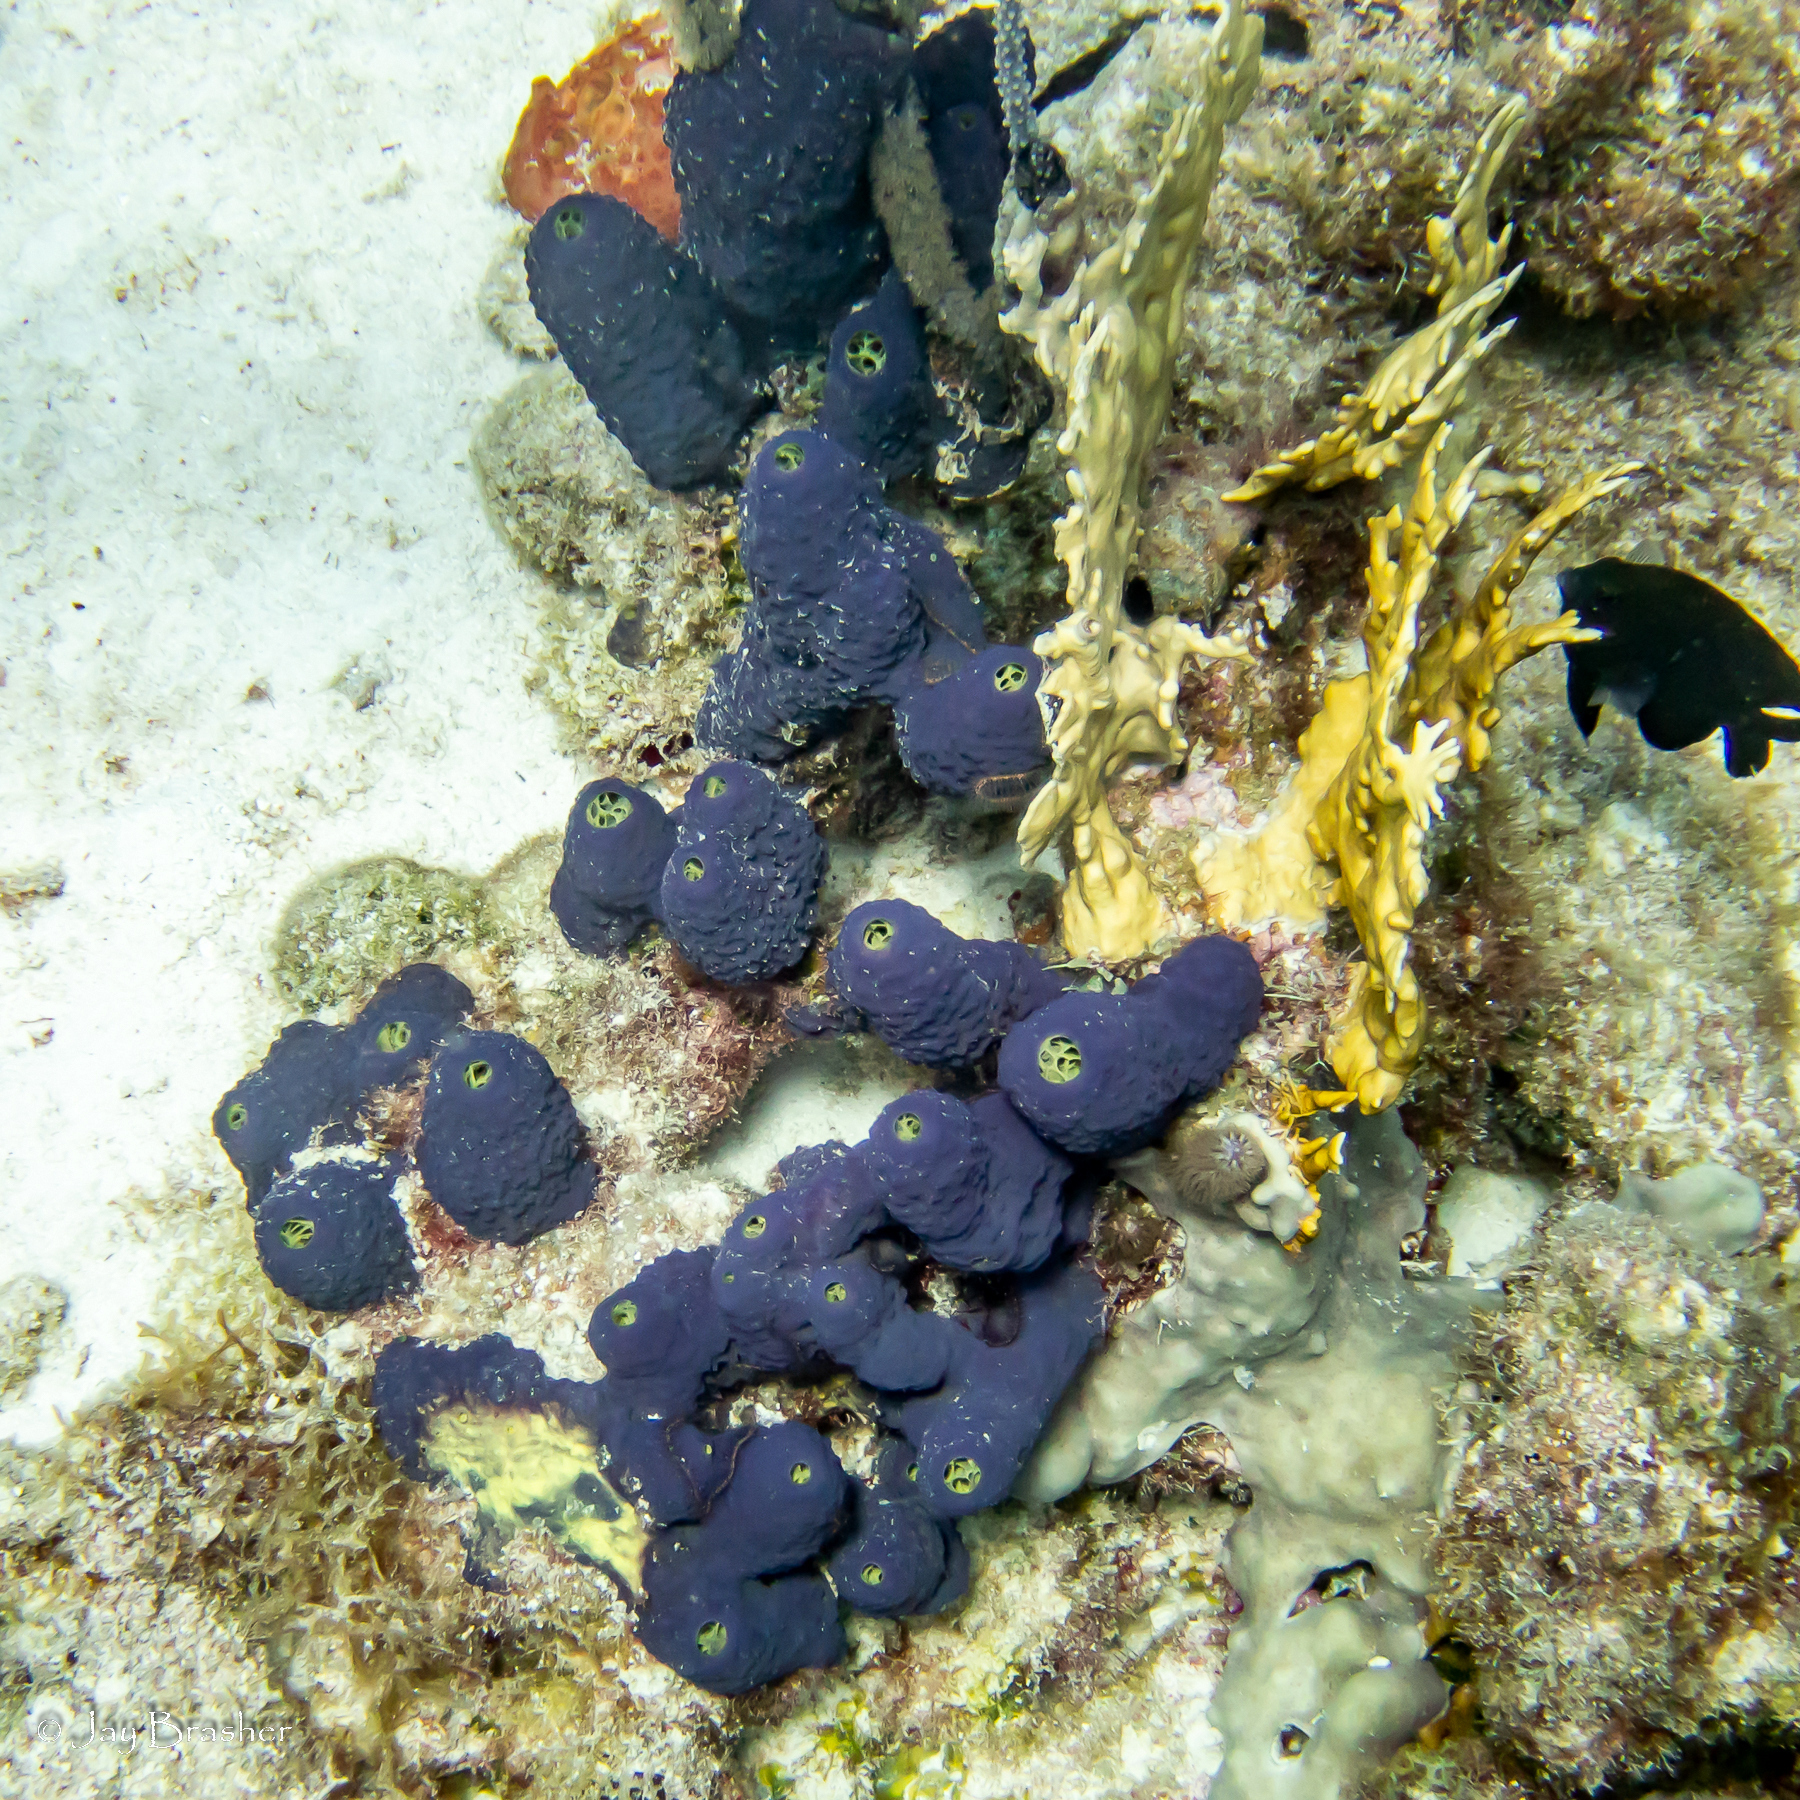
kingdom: Animalia
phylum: Porifera
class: Demospongiae
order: Verongiida
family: Aplysinidae
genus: Aiolochroia
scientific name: Aiolochroia crassa
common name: Branching tube sponge
